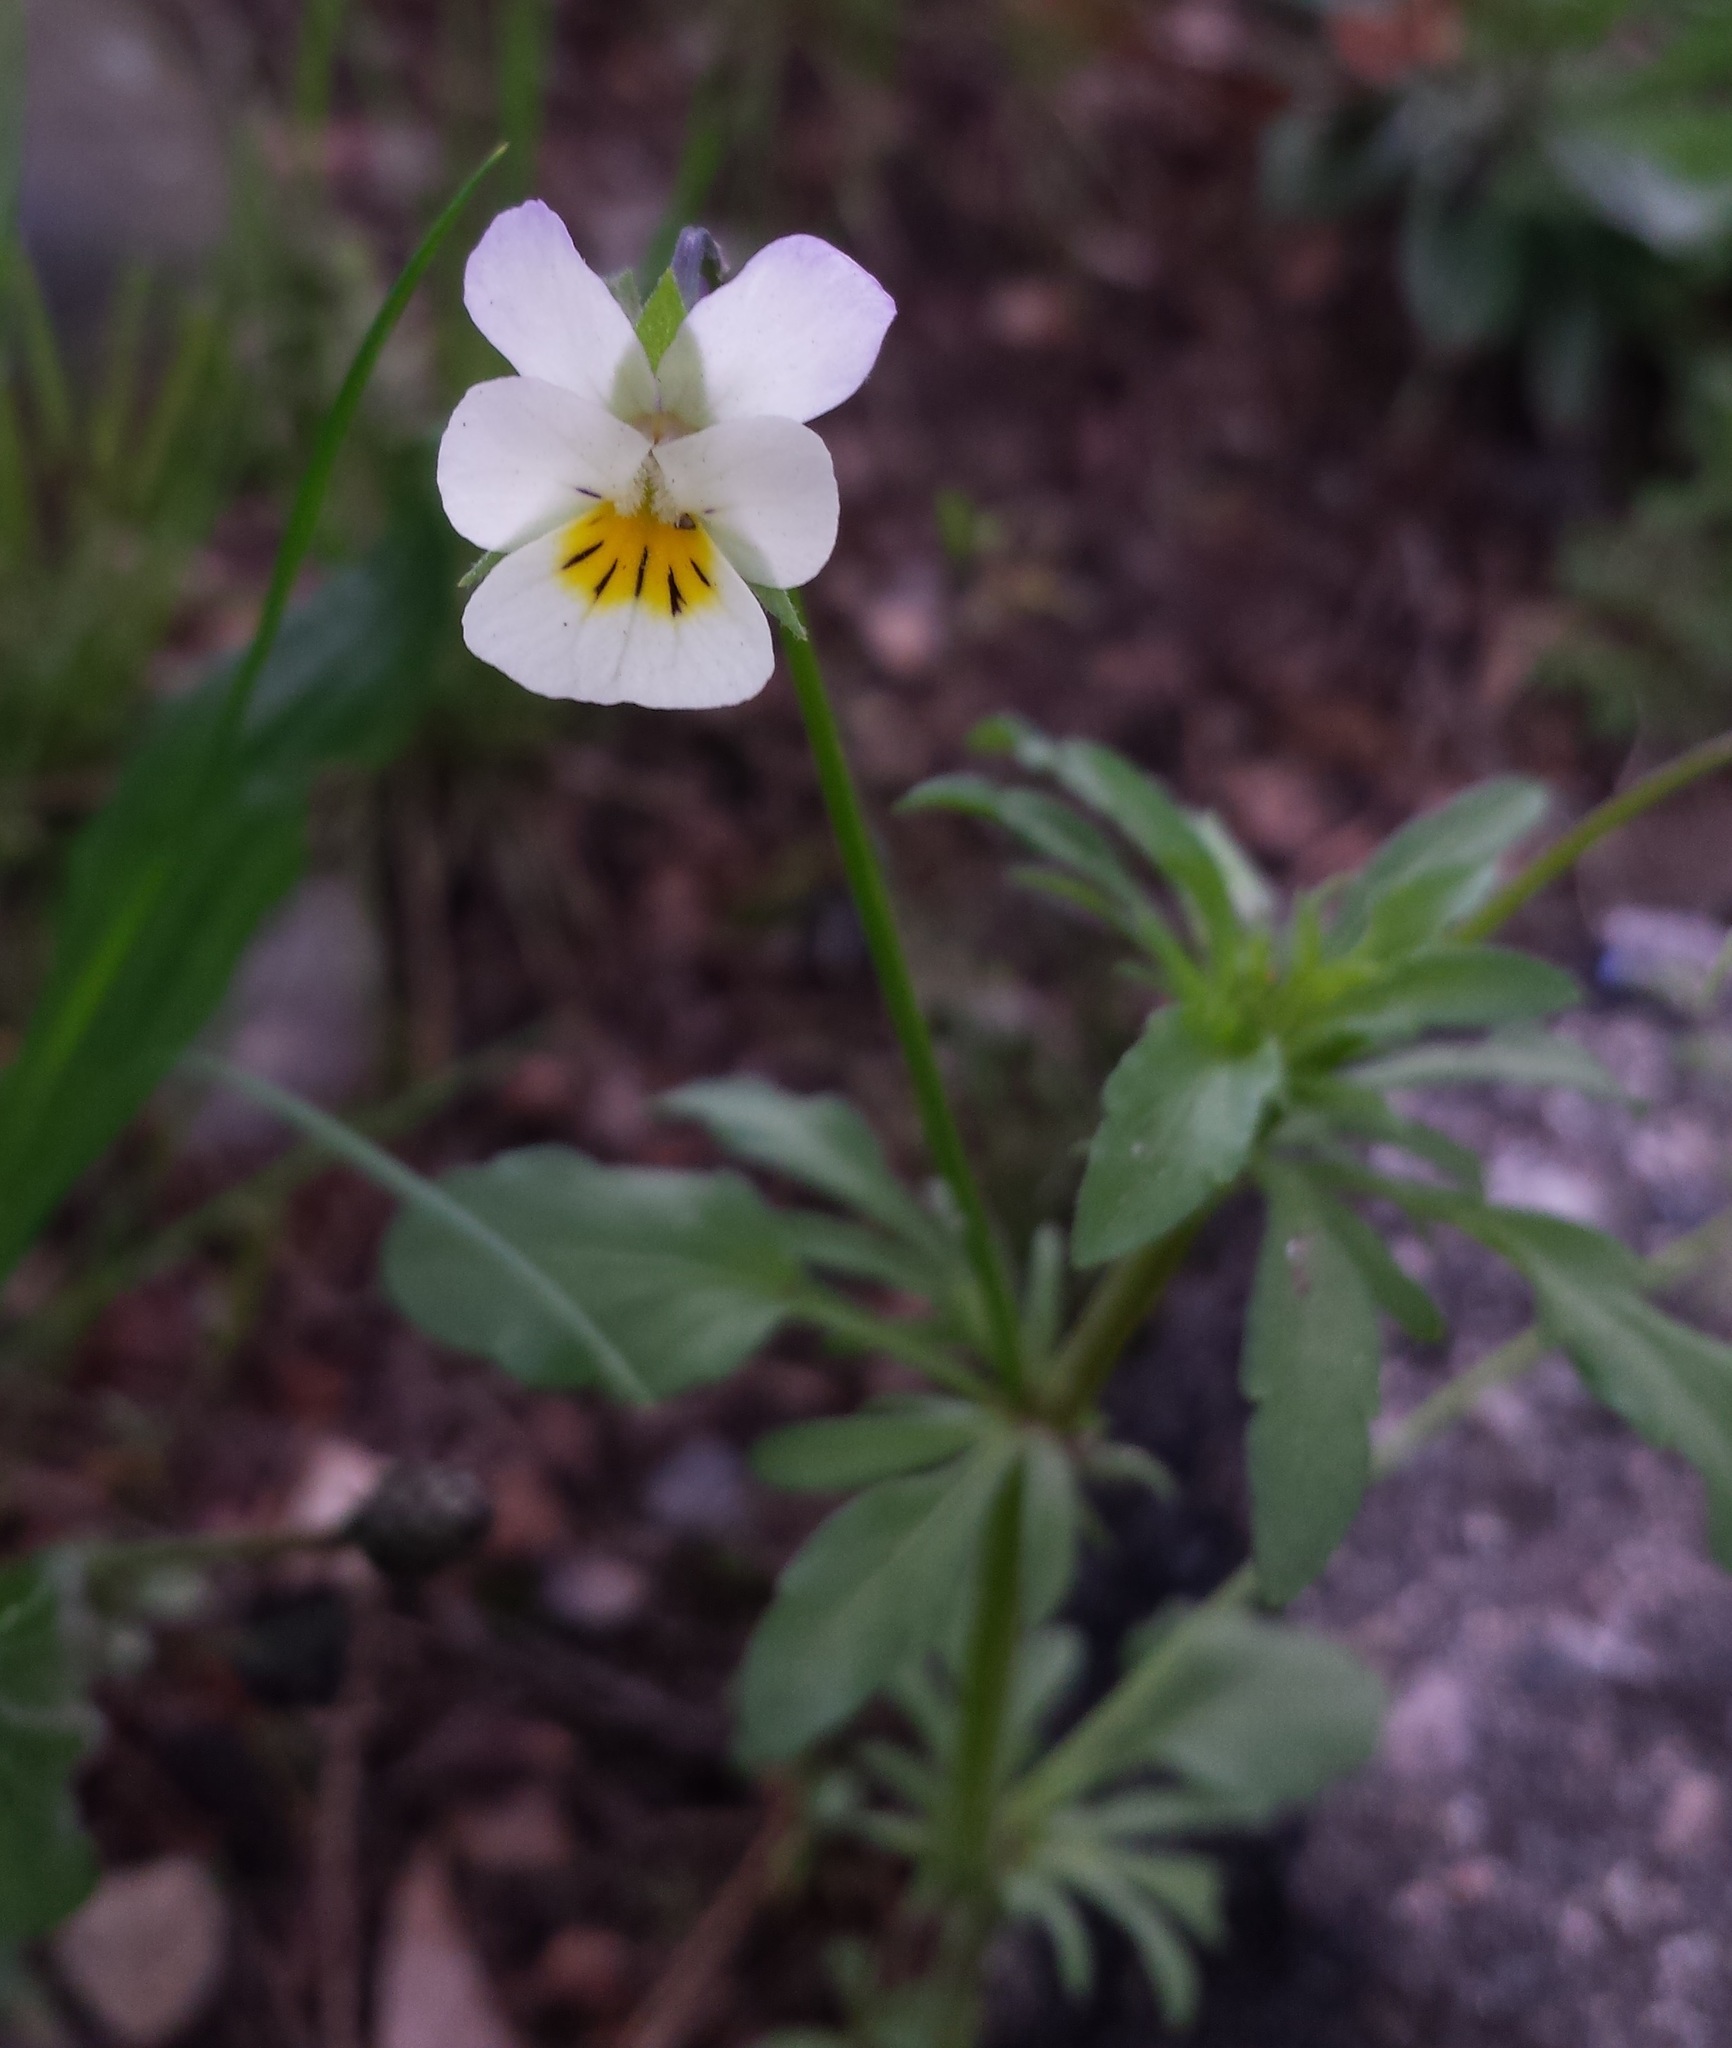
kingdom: Plantae
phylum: Tracheophyta
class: Magnoliopsida
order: Malpighiales
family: Violaceae
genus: Viola
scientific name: Viola arvensis
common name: Field pansy
